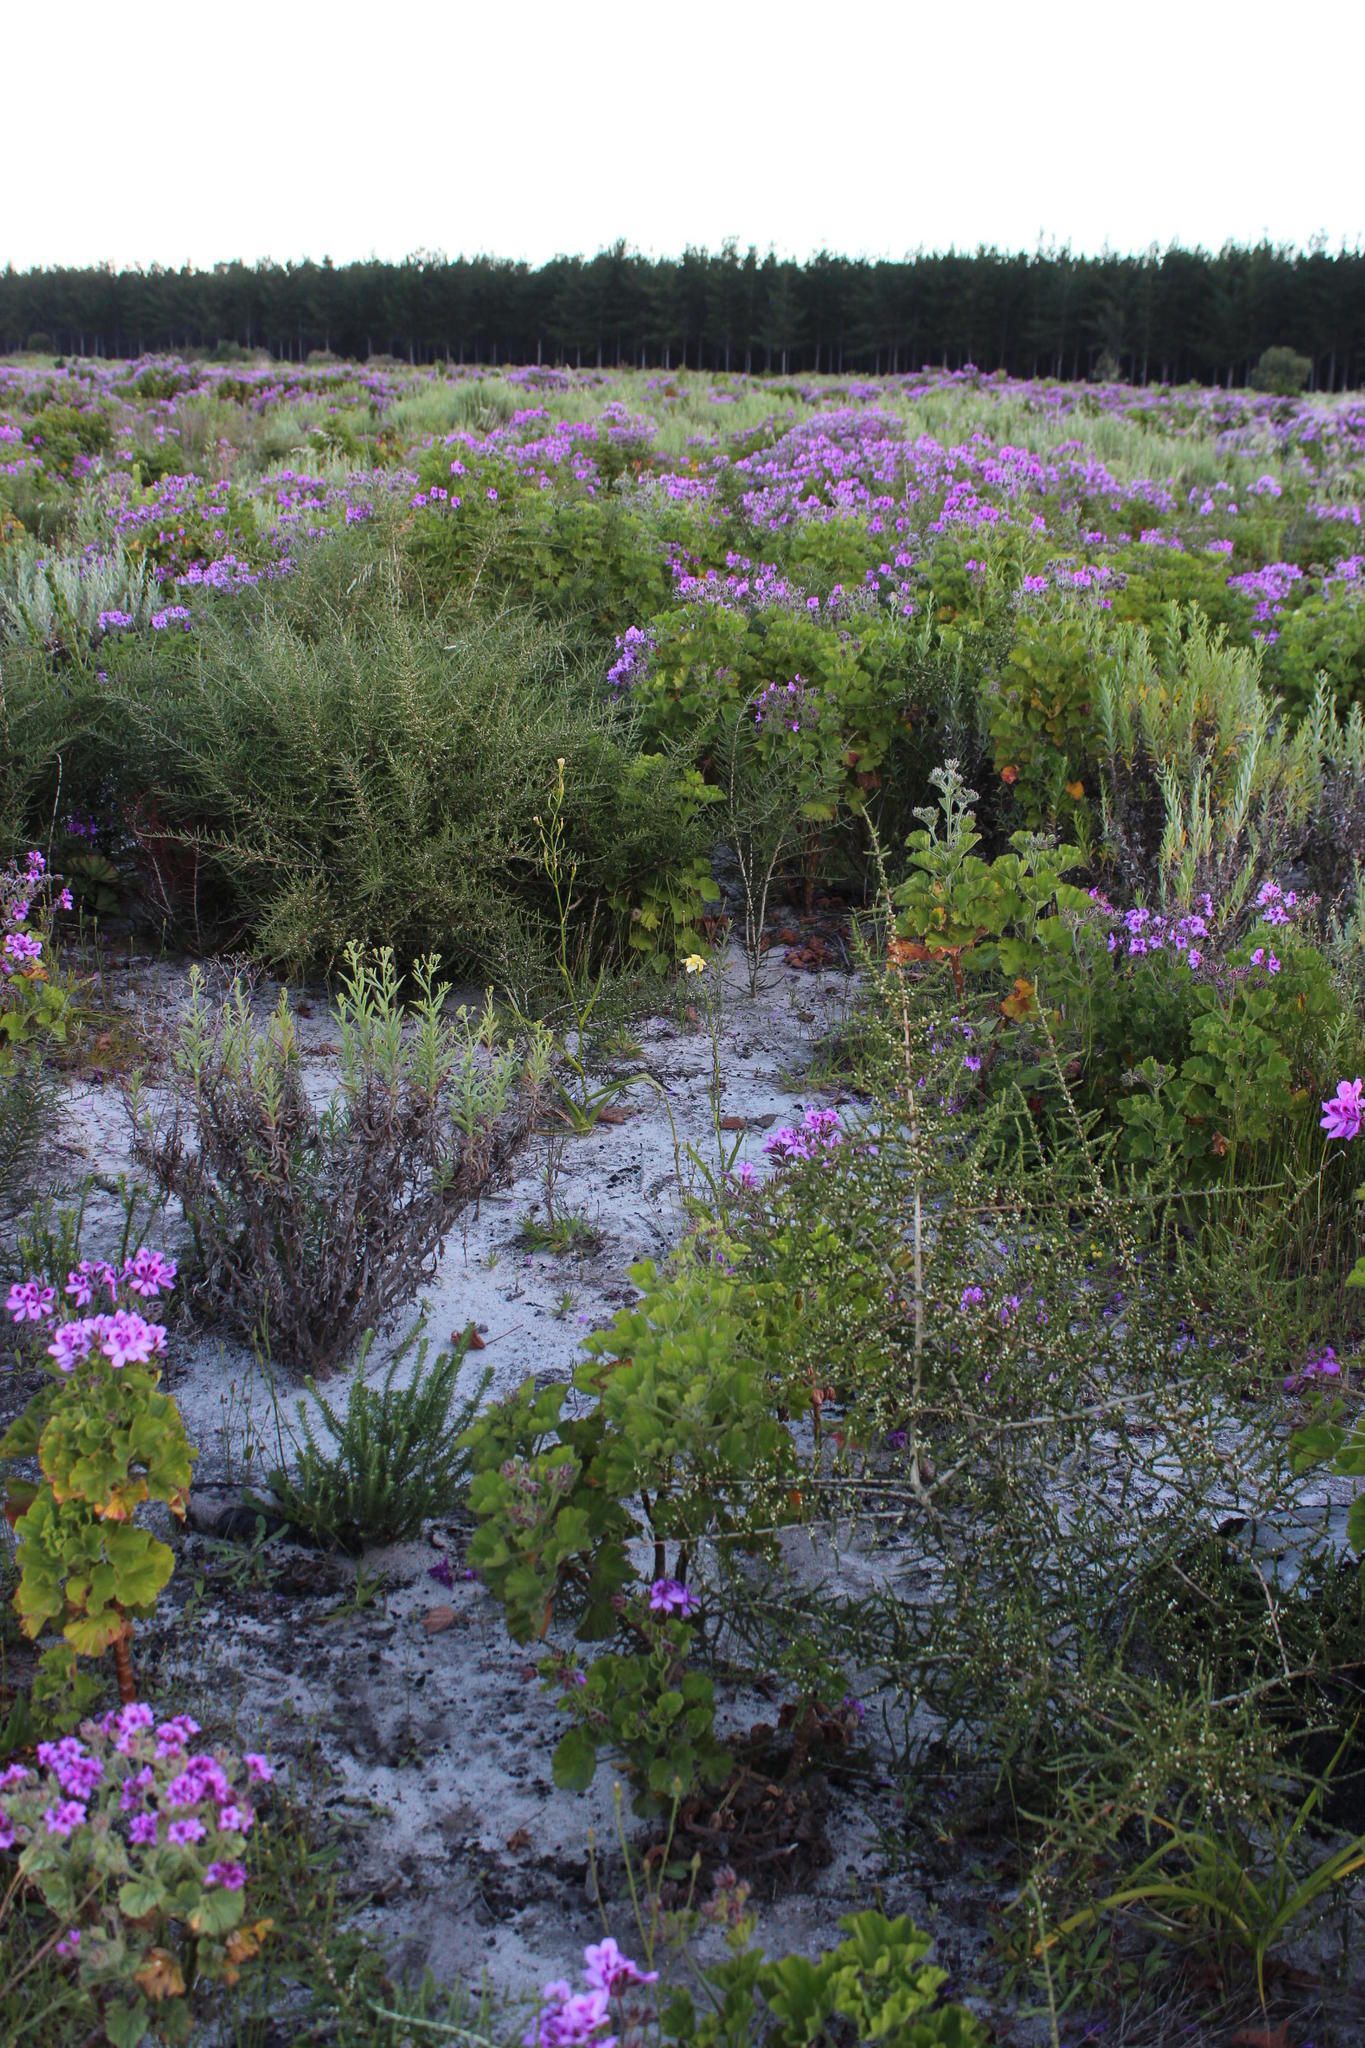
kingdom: Plantae
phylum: Tracheophyta
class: Liliopsida
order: Asparagales
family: Iridaceae
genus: Moraea
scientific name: Moraea ramosissima
